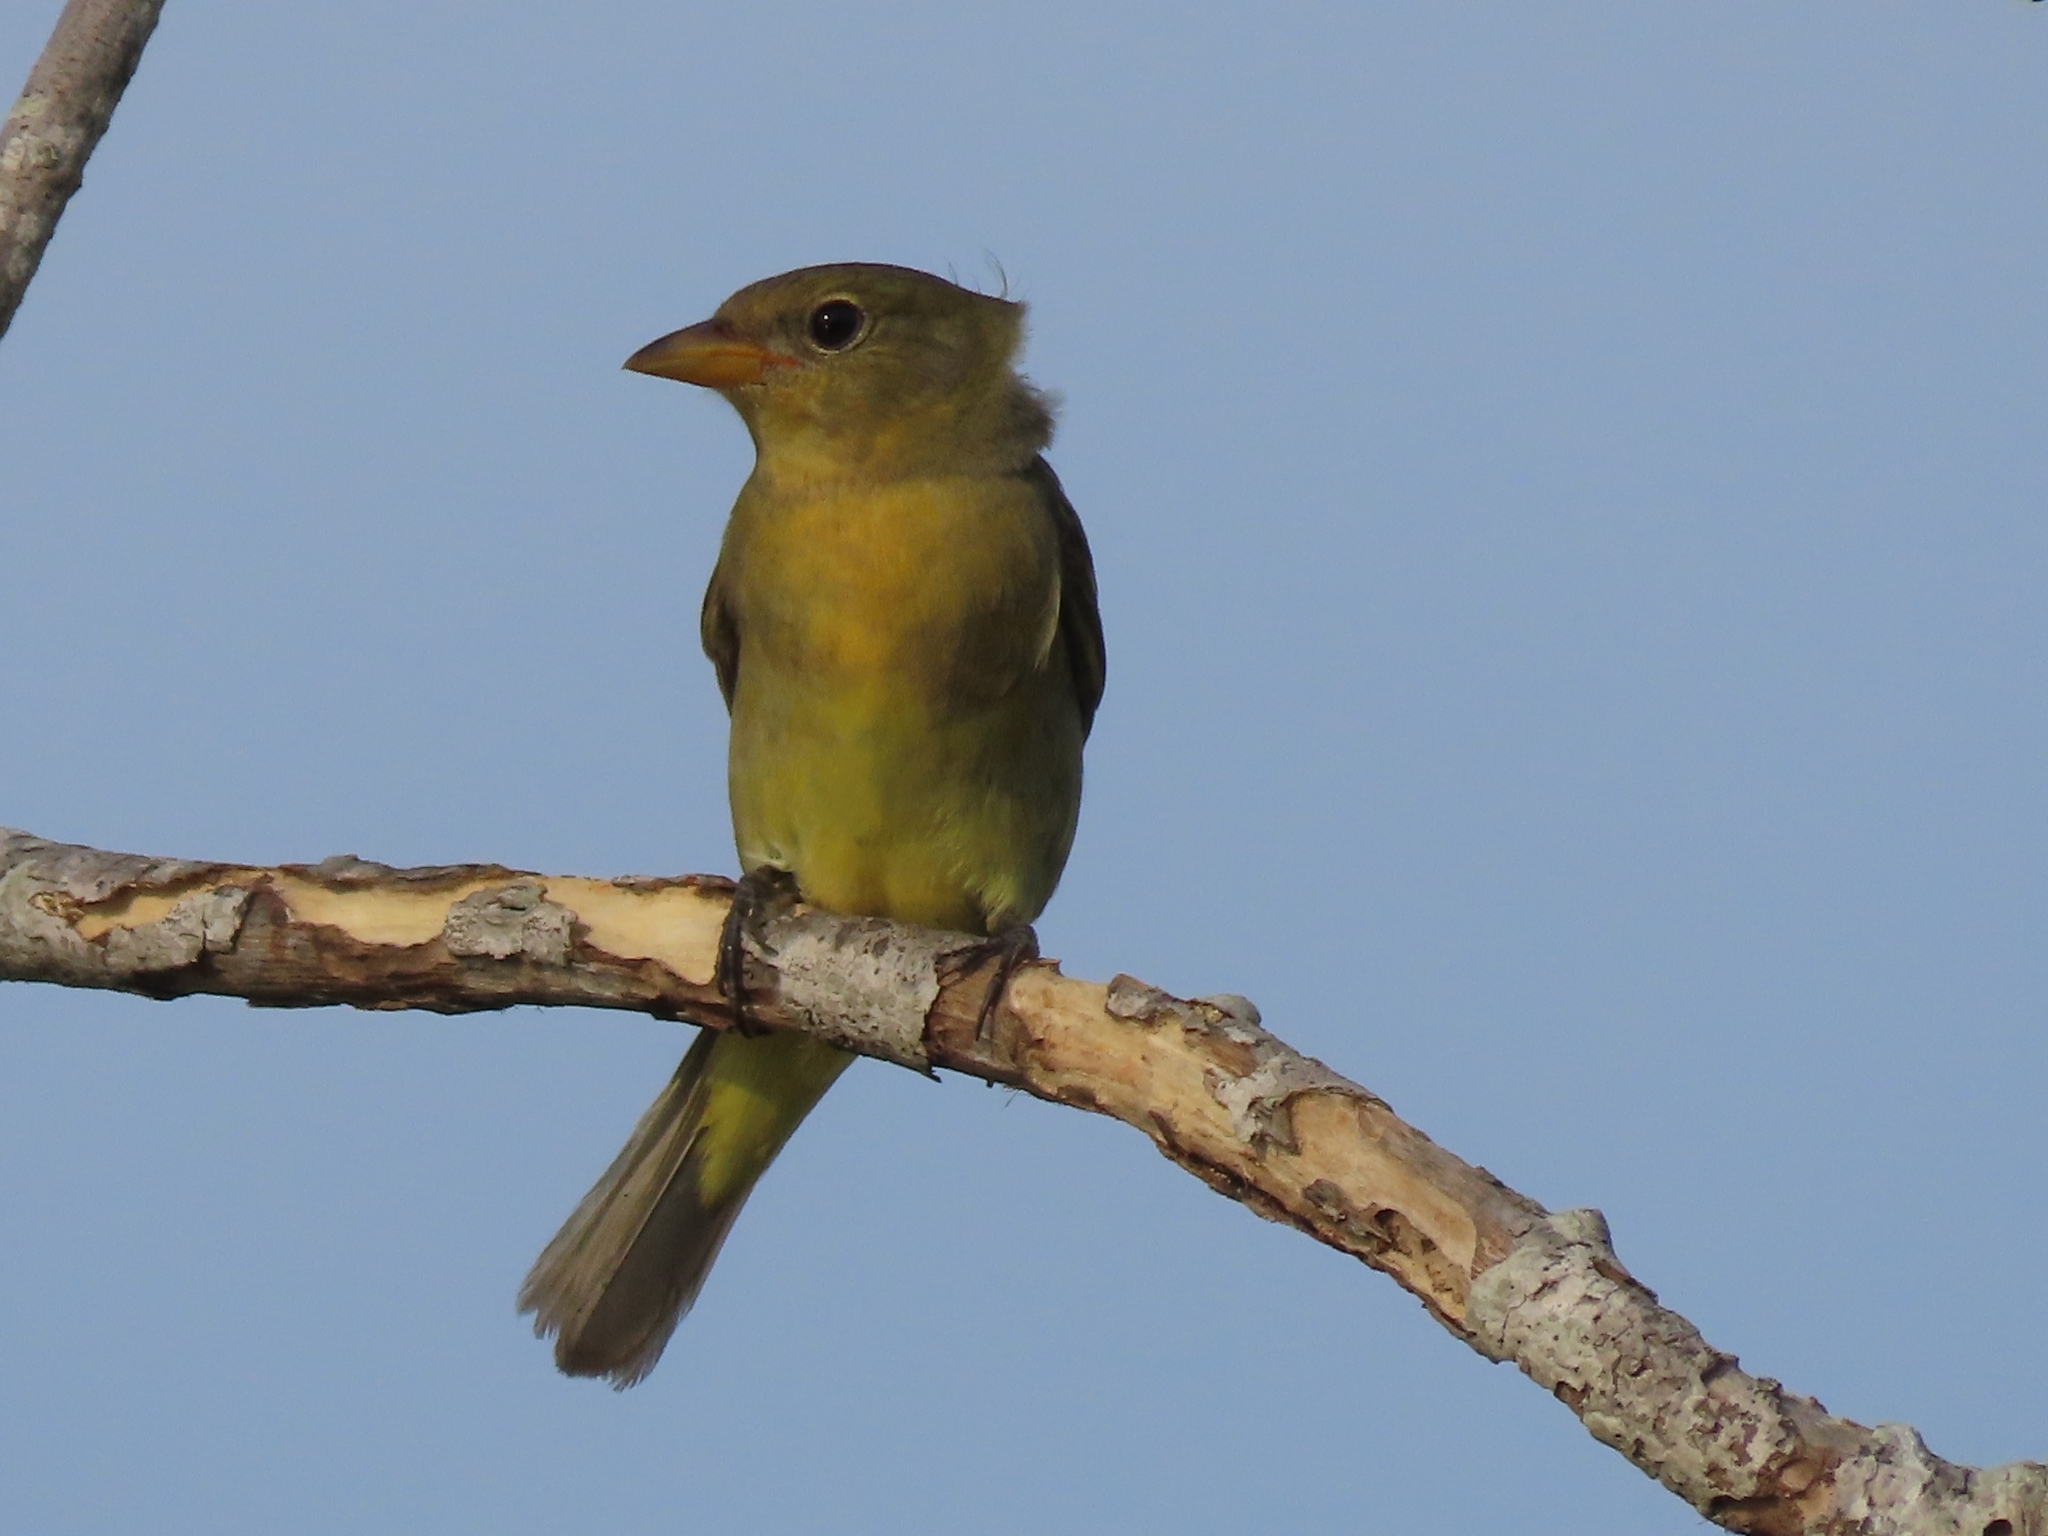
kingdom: Animalia
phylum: Chordata
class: Aves
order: Passeriformes
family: Cardinalidae
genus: Piranga
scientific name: Piranga olivacea
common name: Scarlet tanager
